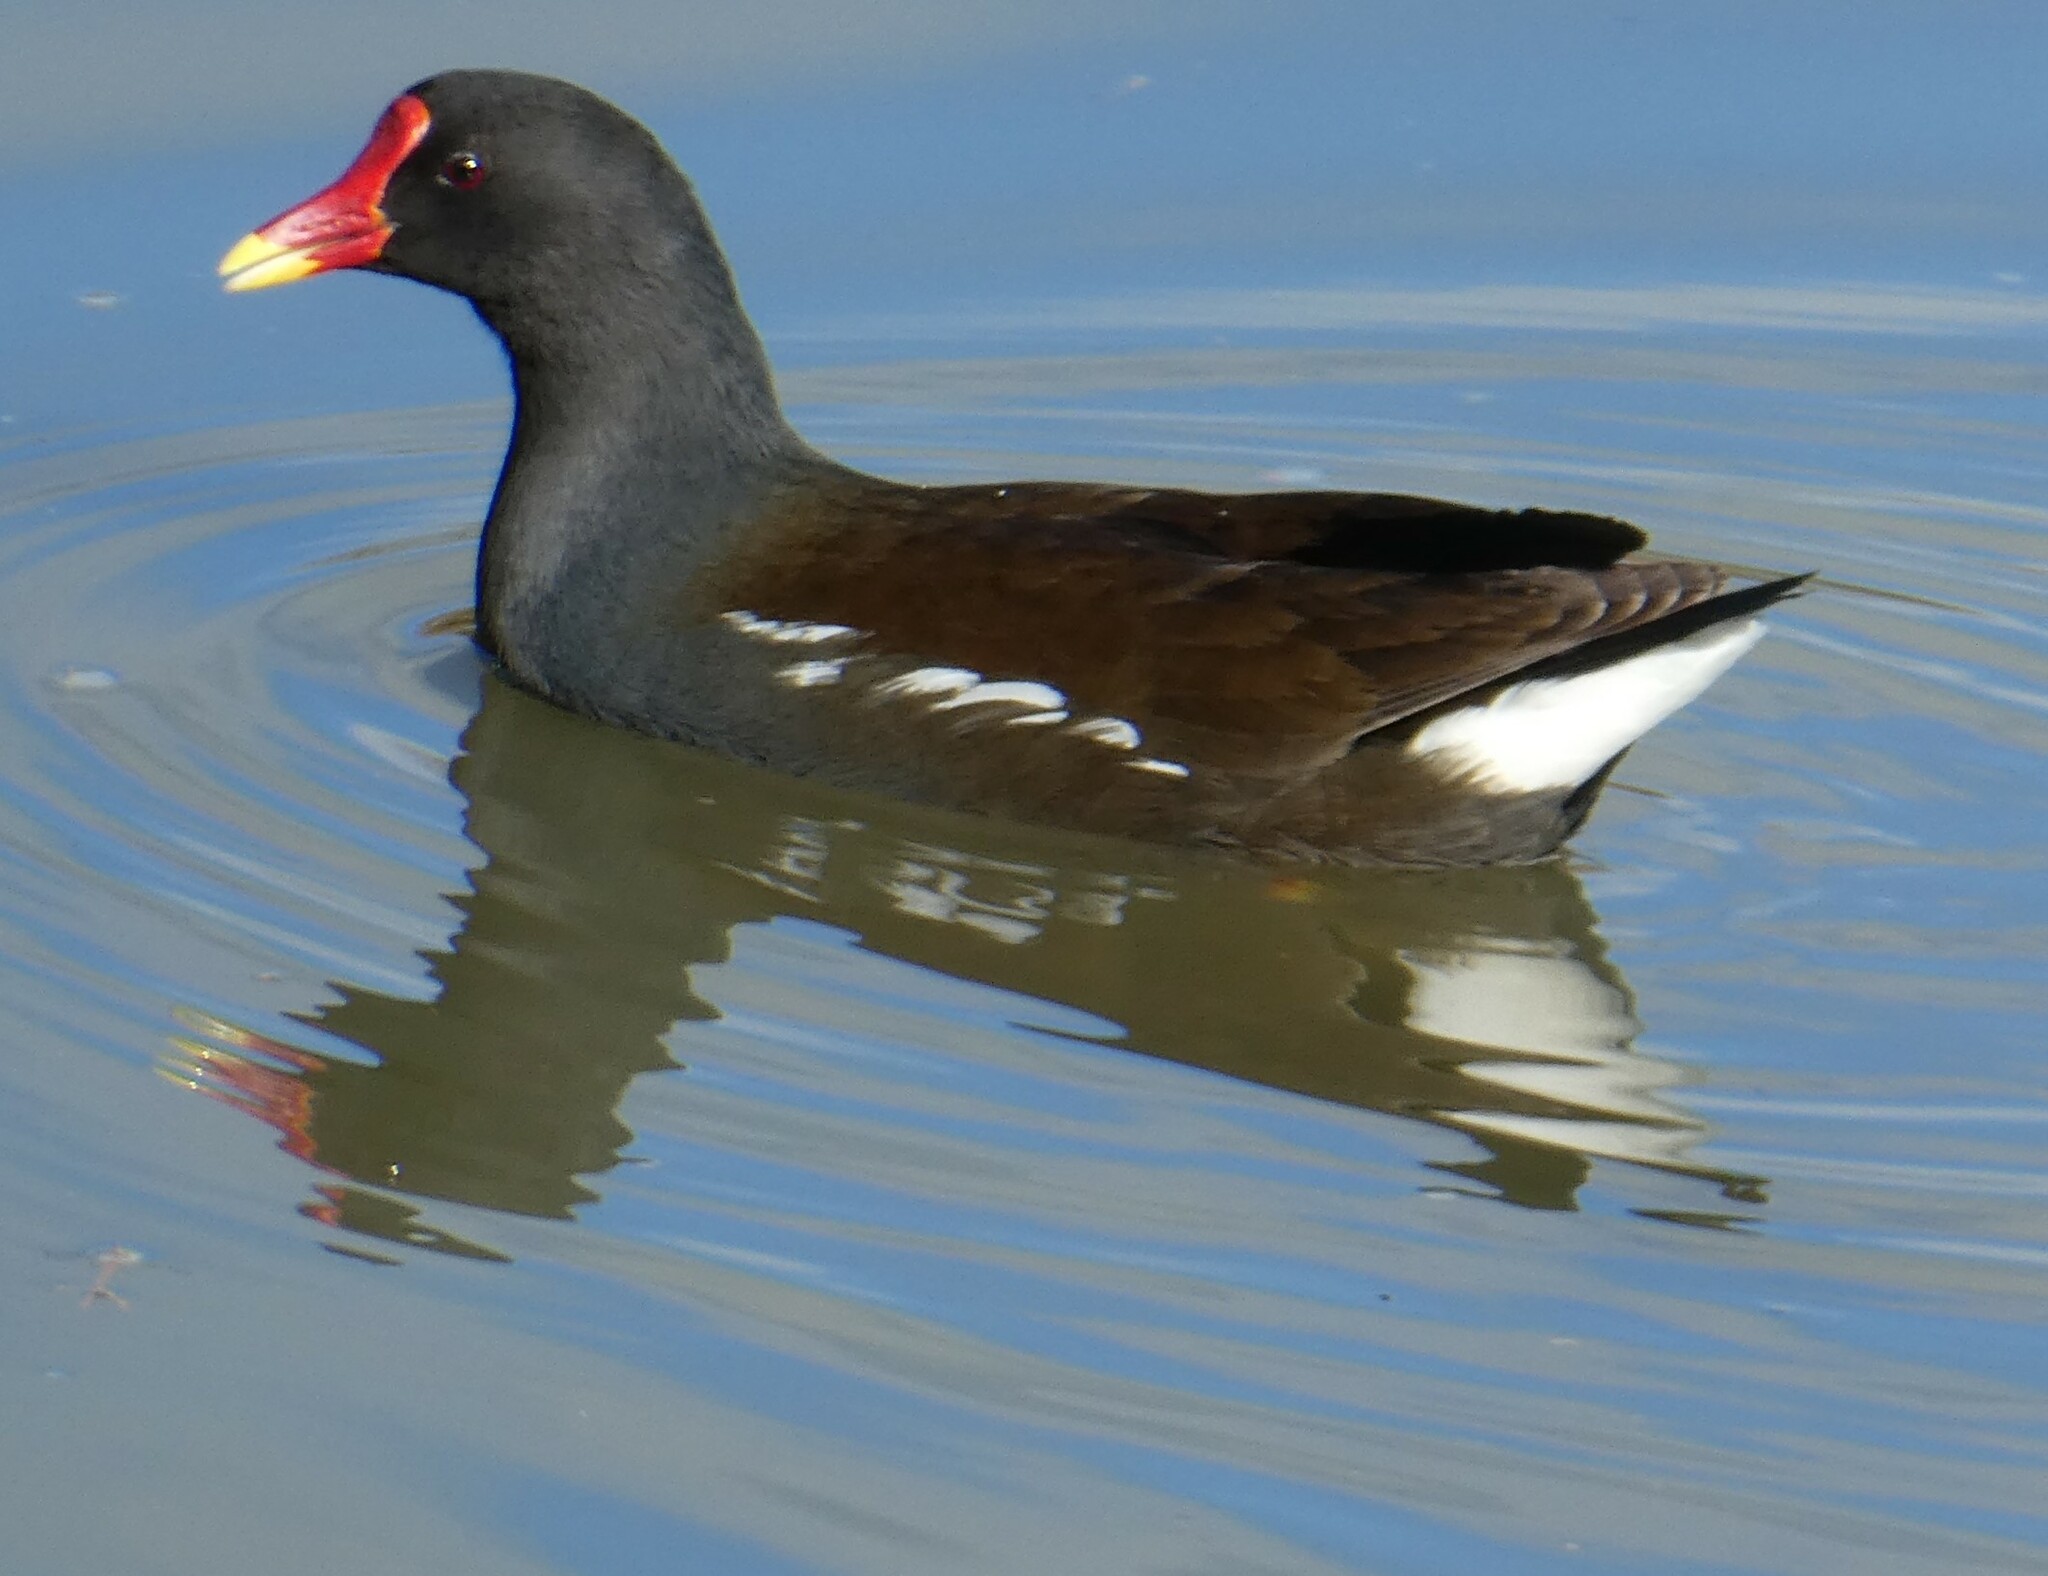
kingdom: Animalia
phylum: Chordata
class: Aves
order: Gruiformes
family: Rallidae
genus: Gallinula
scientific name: Gallinula chloropus
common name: Common moorhen
